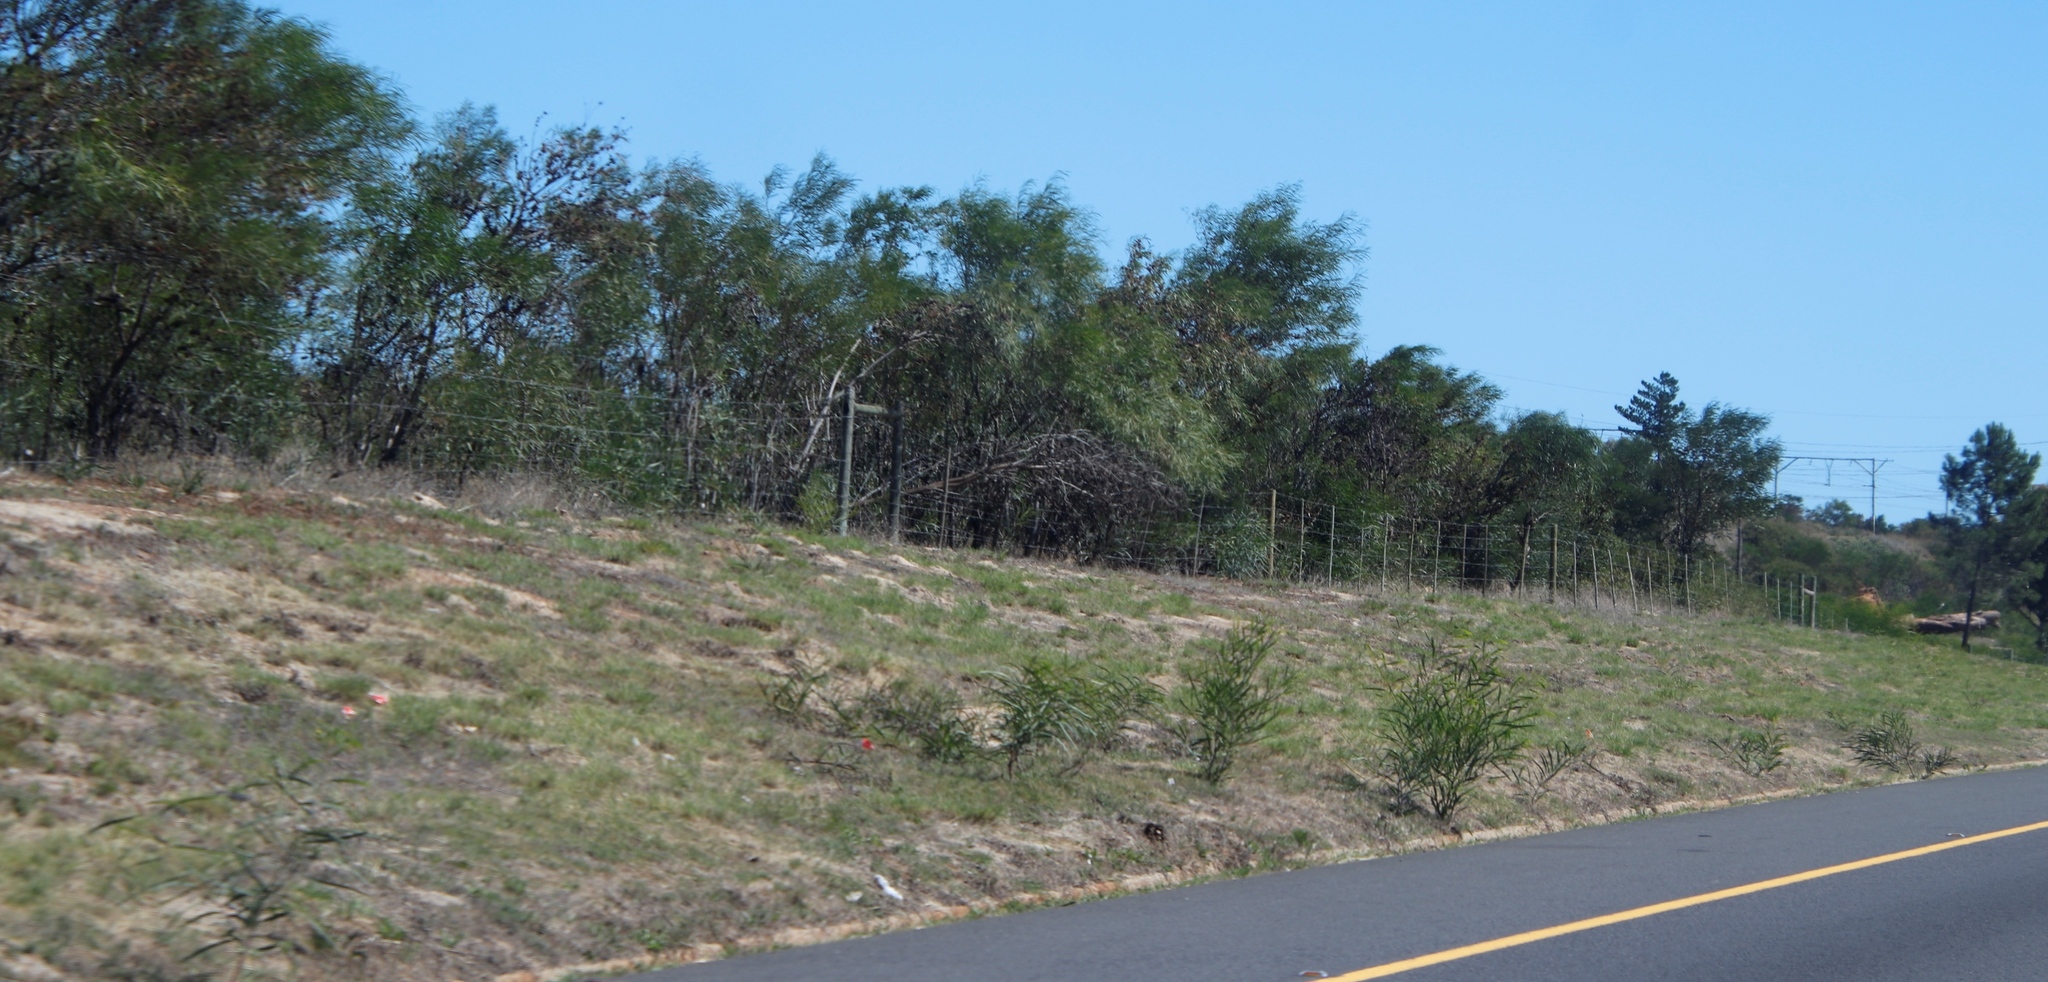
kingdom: Plantae
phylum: Tracheophyta
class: Magnoliopsida
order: Fabales
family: Fabaceae
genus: Acacia
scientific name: Acacia saligna
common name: Orange wattle
